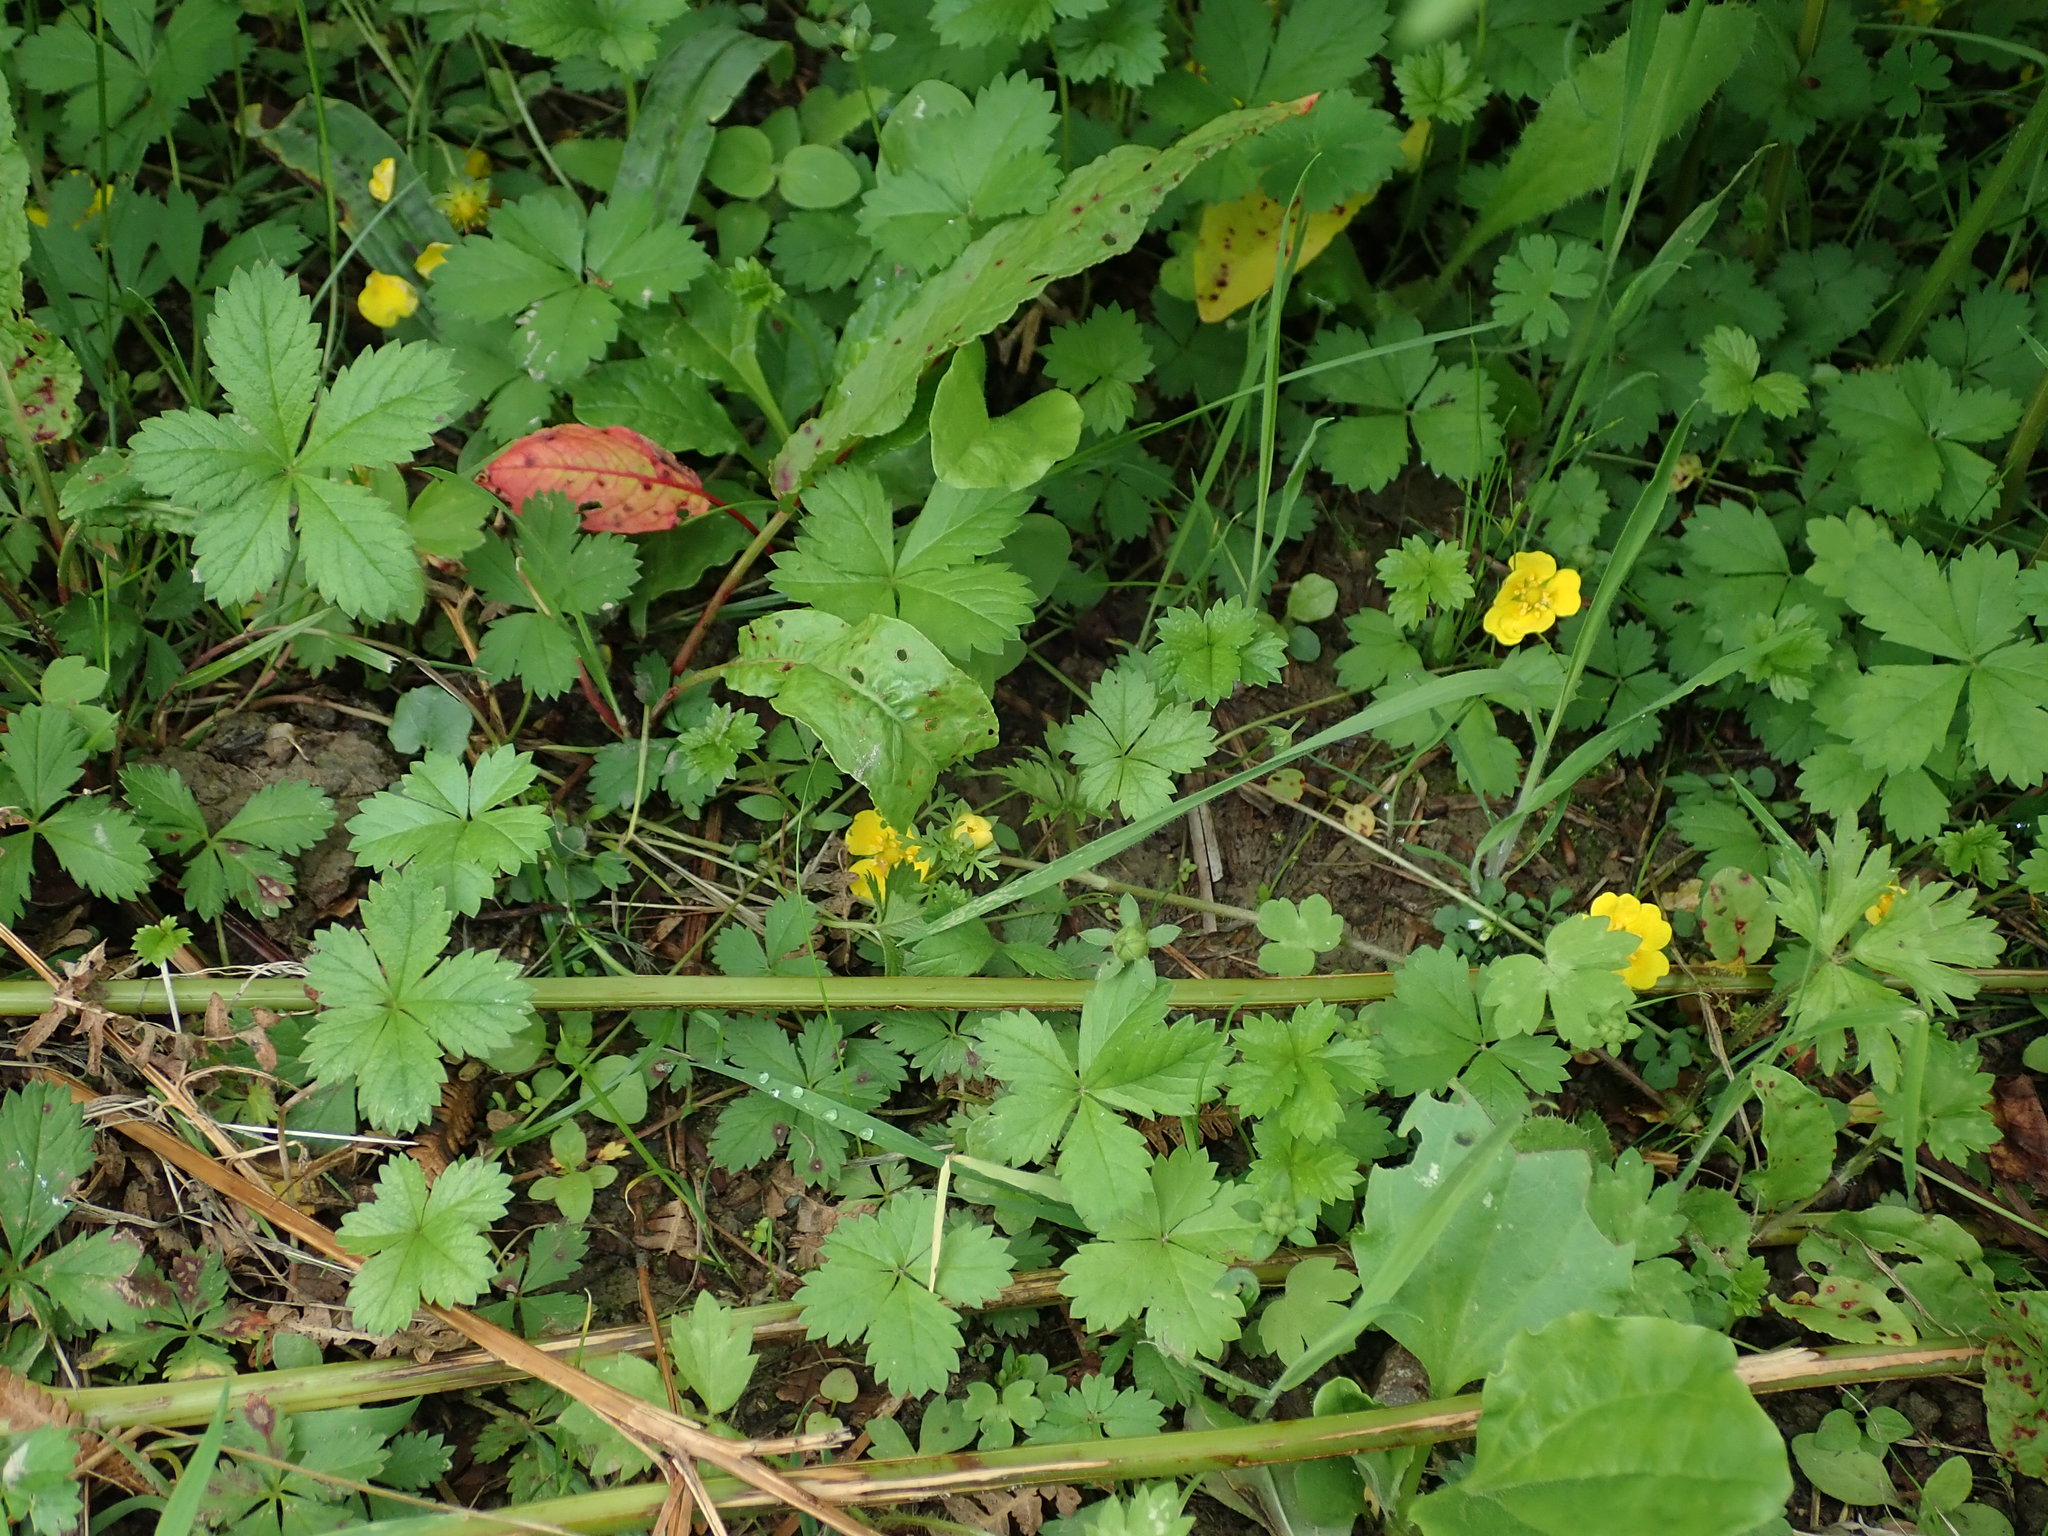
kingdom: Plantae
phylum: Tracheophyta
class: Magnoliopsida
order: Rosales
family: Rosaceae
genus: Potentilla
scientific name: Potentilla reptans
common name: Creeping cinquefoil
